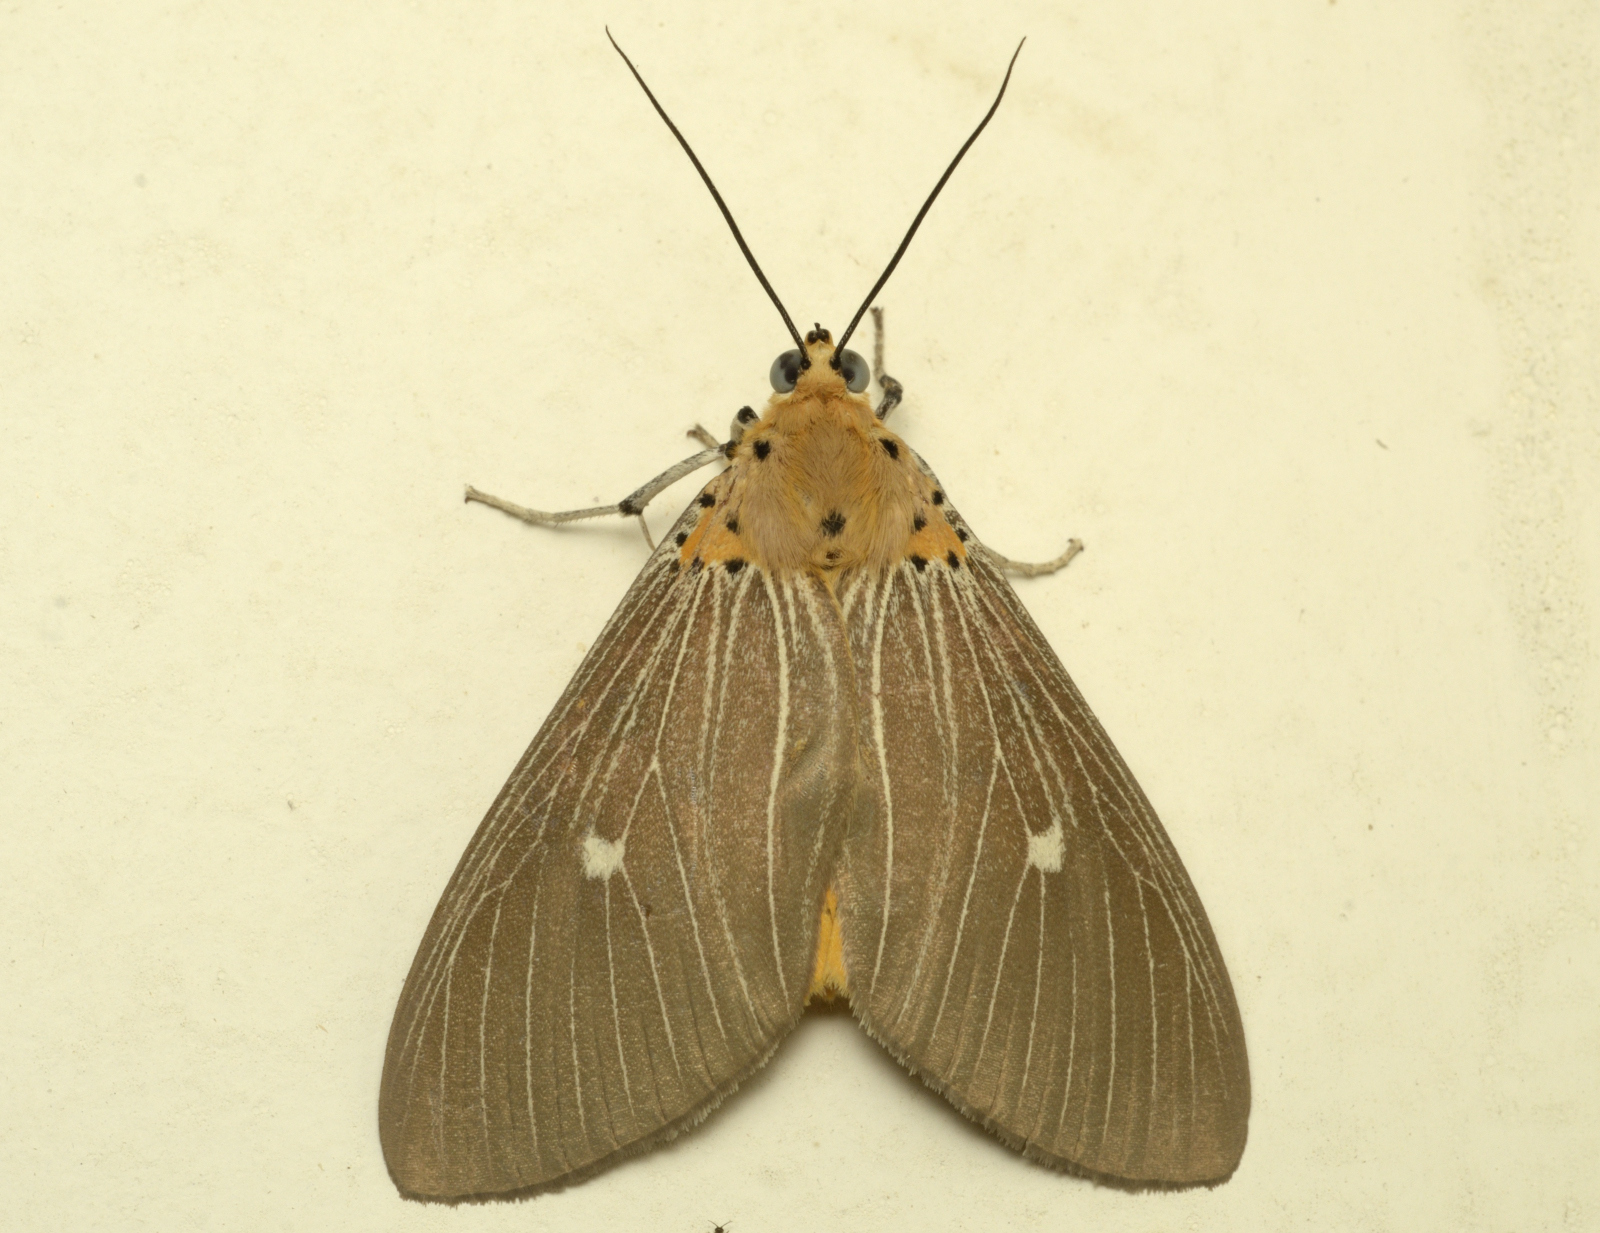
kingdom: Animalia
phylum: Arthropoda
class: Insecta
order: Lepidoptera
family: Erebidae
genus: Asota
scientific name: Asota caricae
